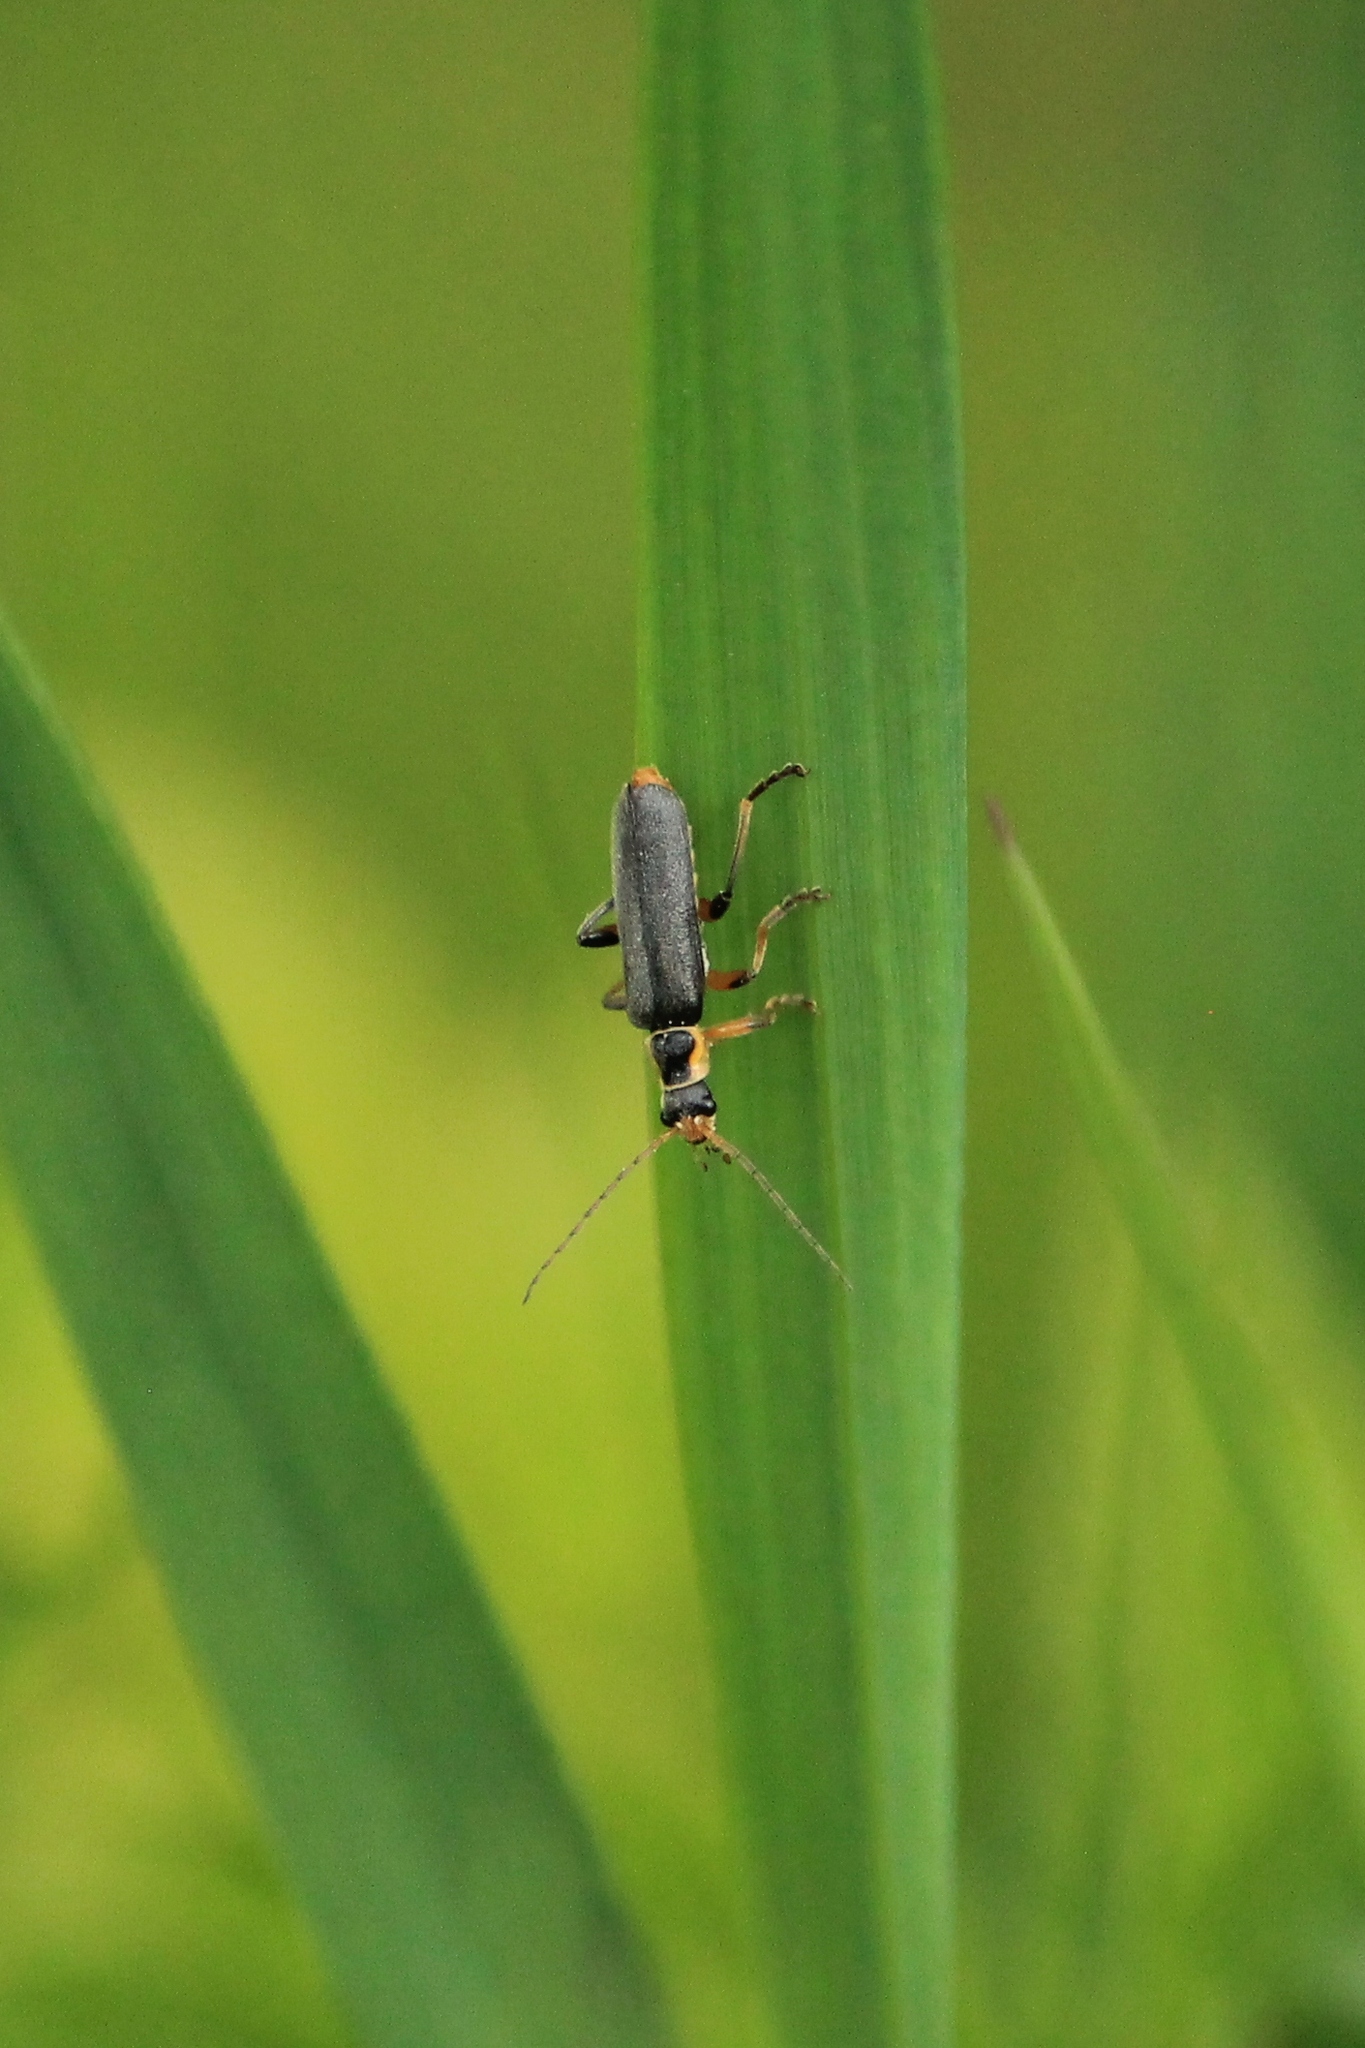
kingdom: Animalia
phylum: Arthropoda
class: Insecta
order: Coleoptera
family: Cantharidae
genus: Cantharis
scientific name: Cantharis nigricans
